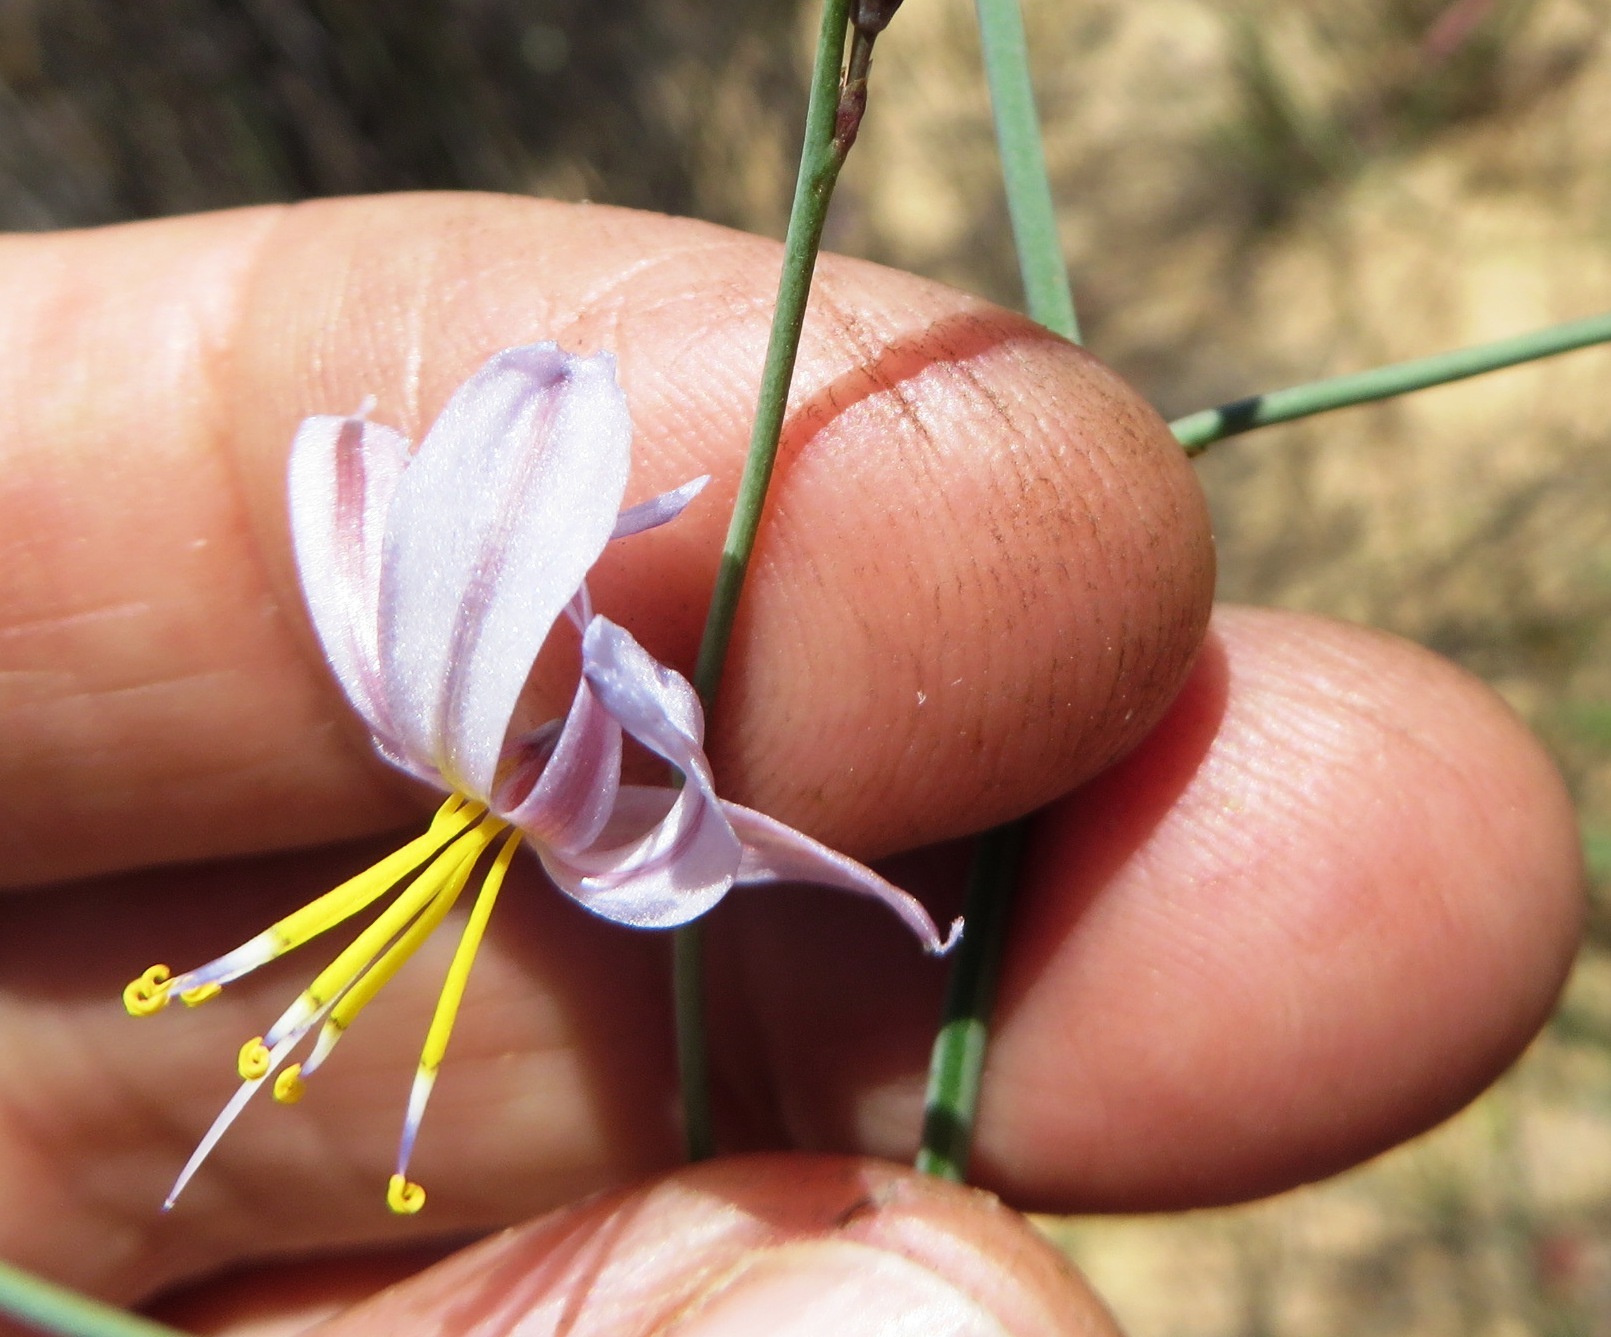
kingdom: Plantae
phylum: Tracheophyta
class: Liliopsida
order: Asparagales
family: Asphodelaceae
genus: Caesia
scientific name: Caesia sabulosa
